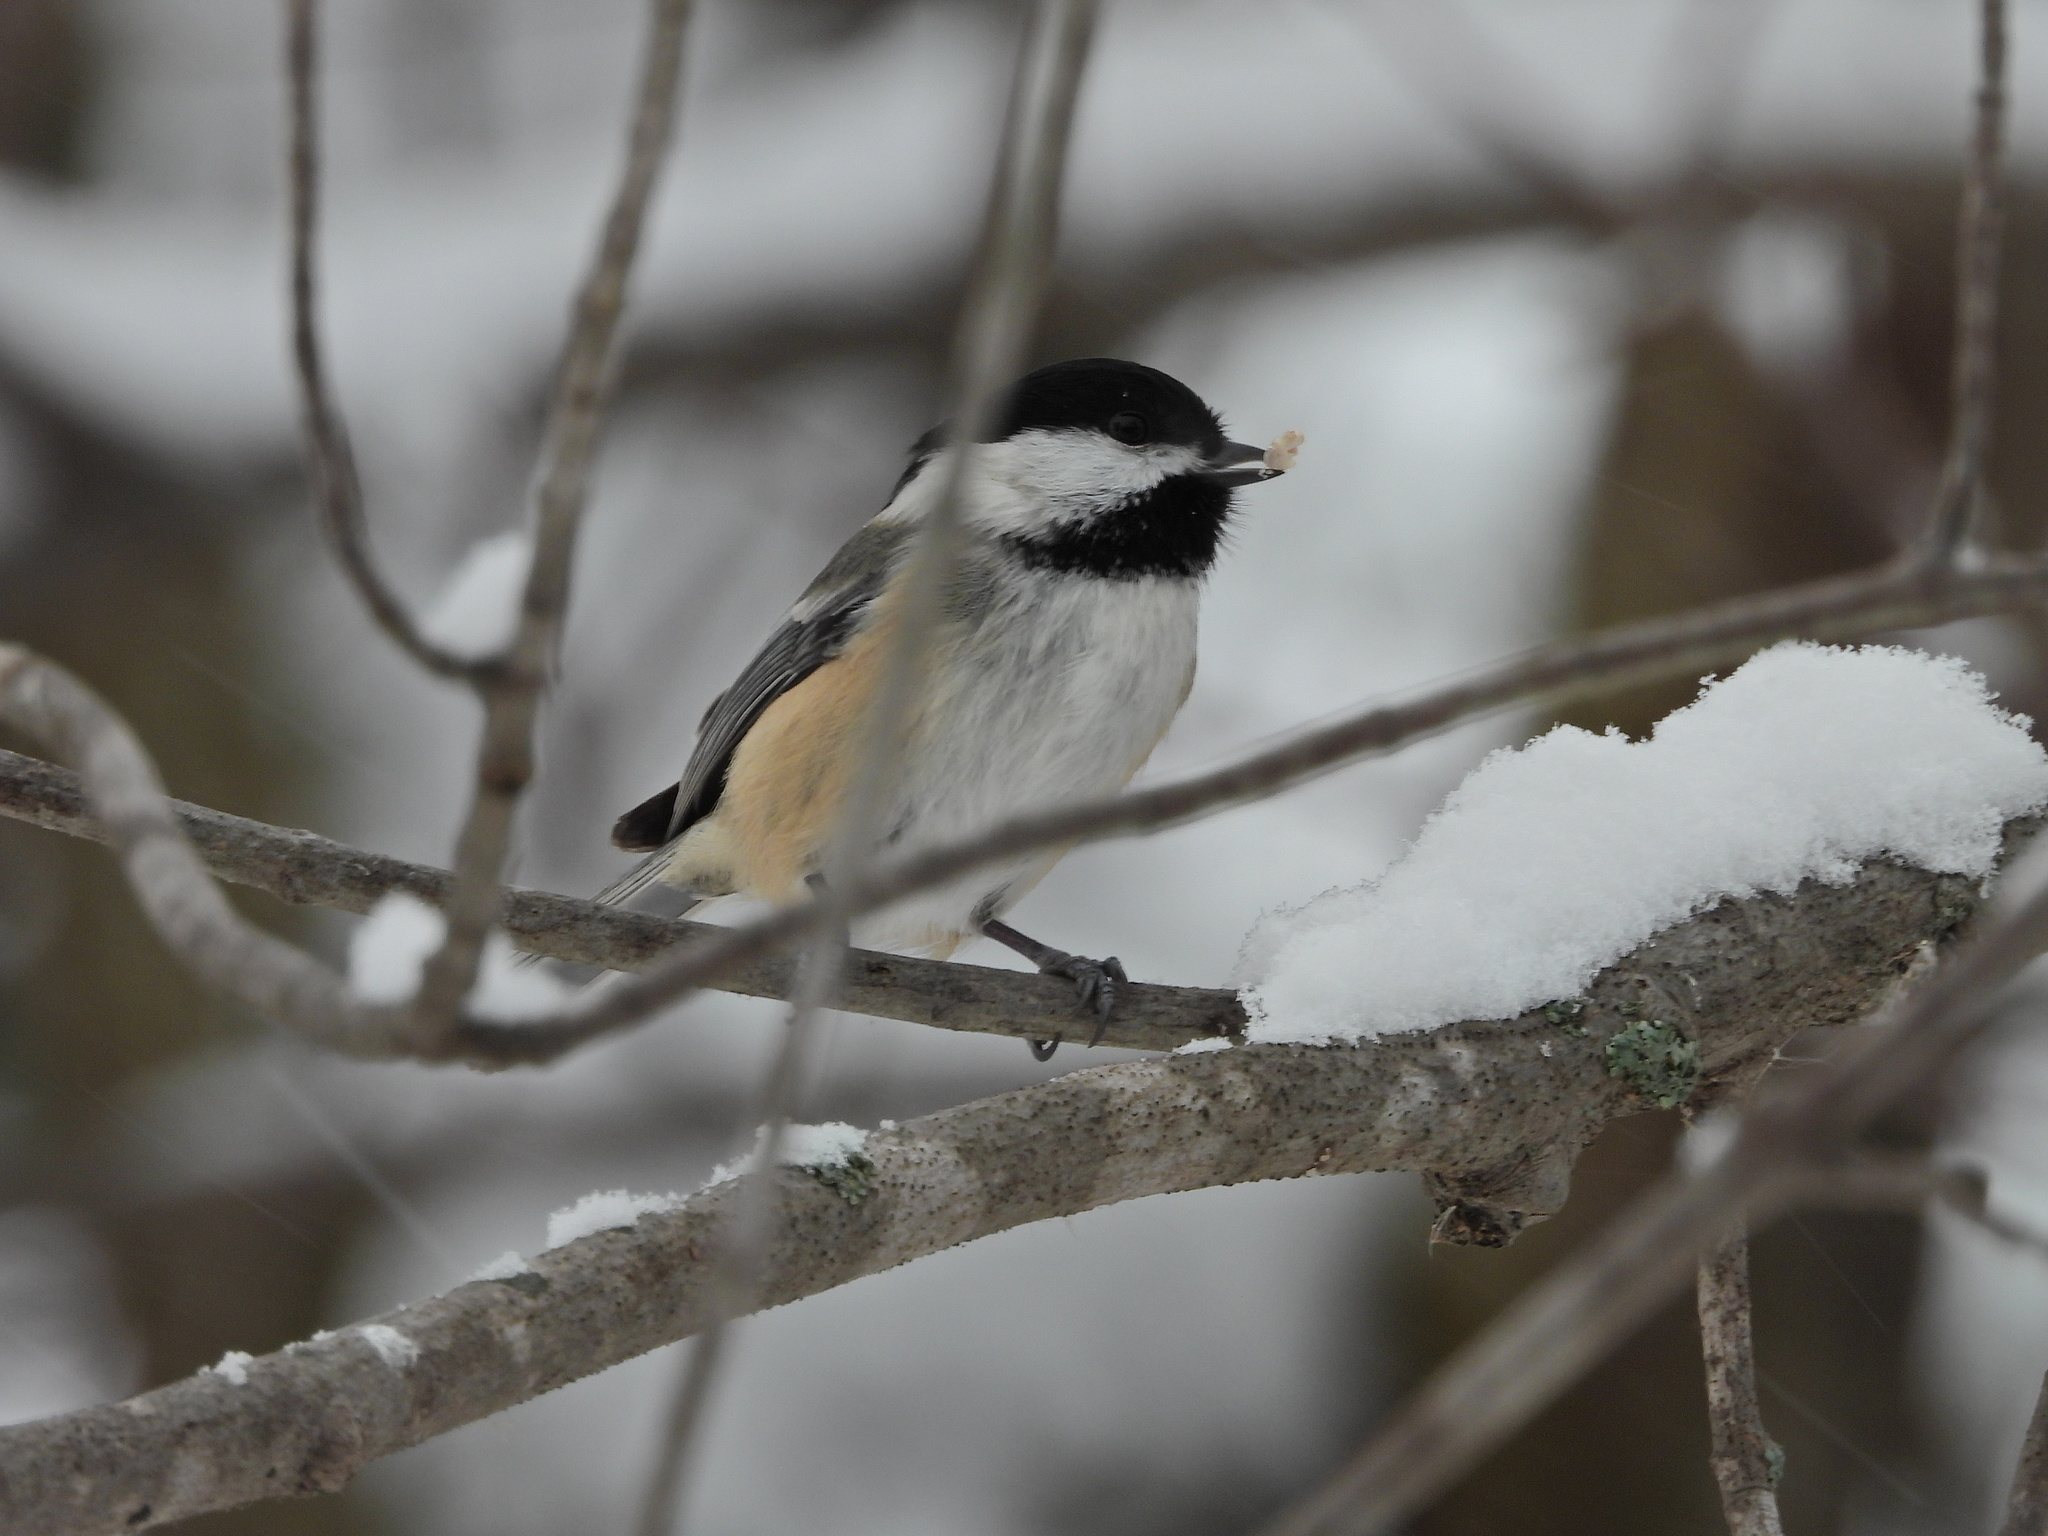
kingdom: Animalia
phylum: Chordata
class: Aves
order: Passeriformes
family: Paridae
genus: Poecile
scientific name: Poecile atricapillus
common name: Black-capped chickadee
